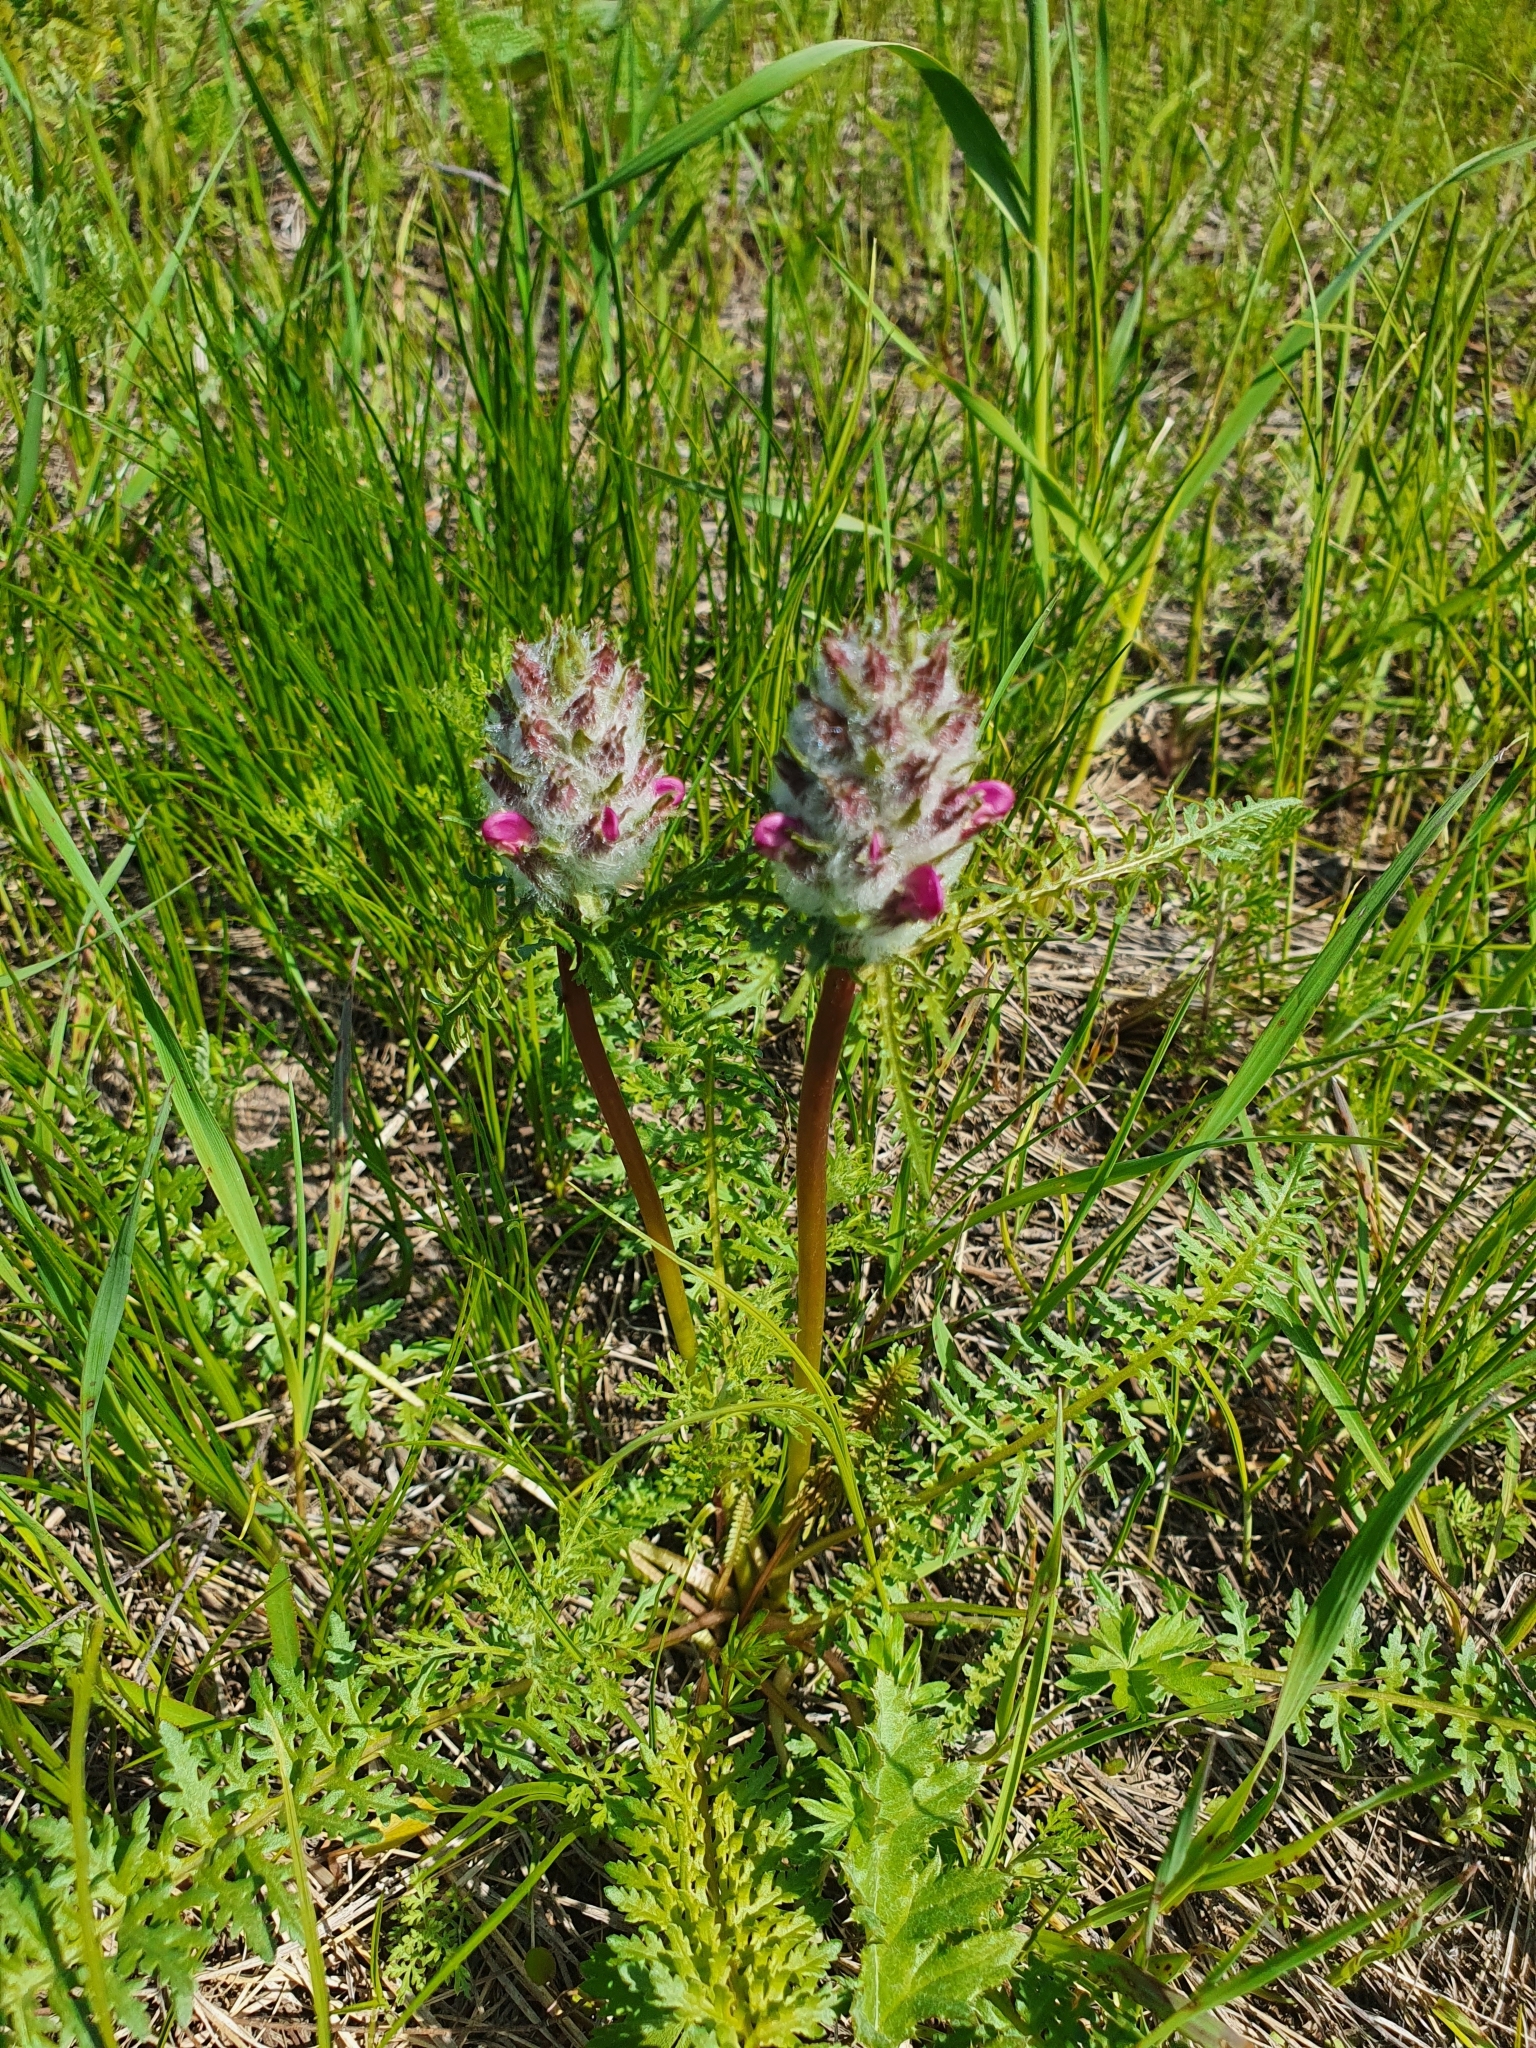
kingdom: Plantae
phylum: Tracheophyta
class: Magnoliopsida
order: Lamiales
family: Orobanchaceae
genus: Pedicularis
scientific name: Pedicularis dasystachys
